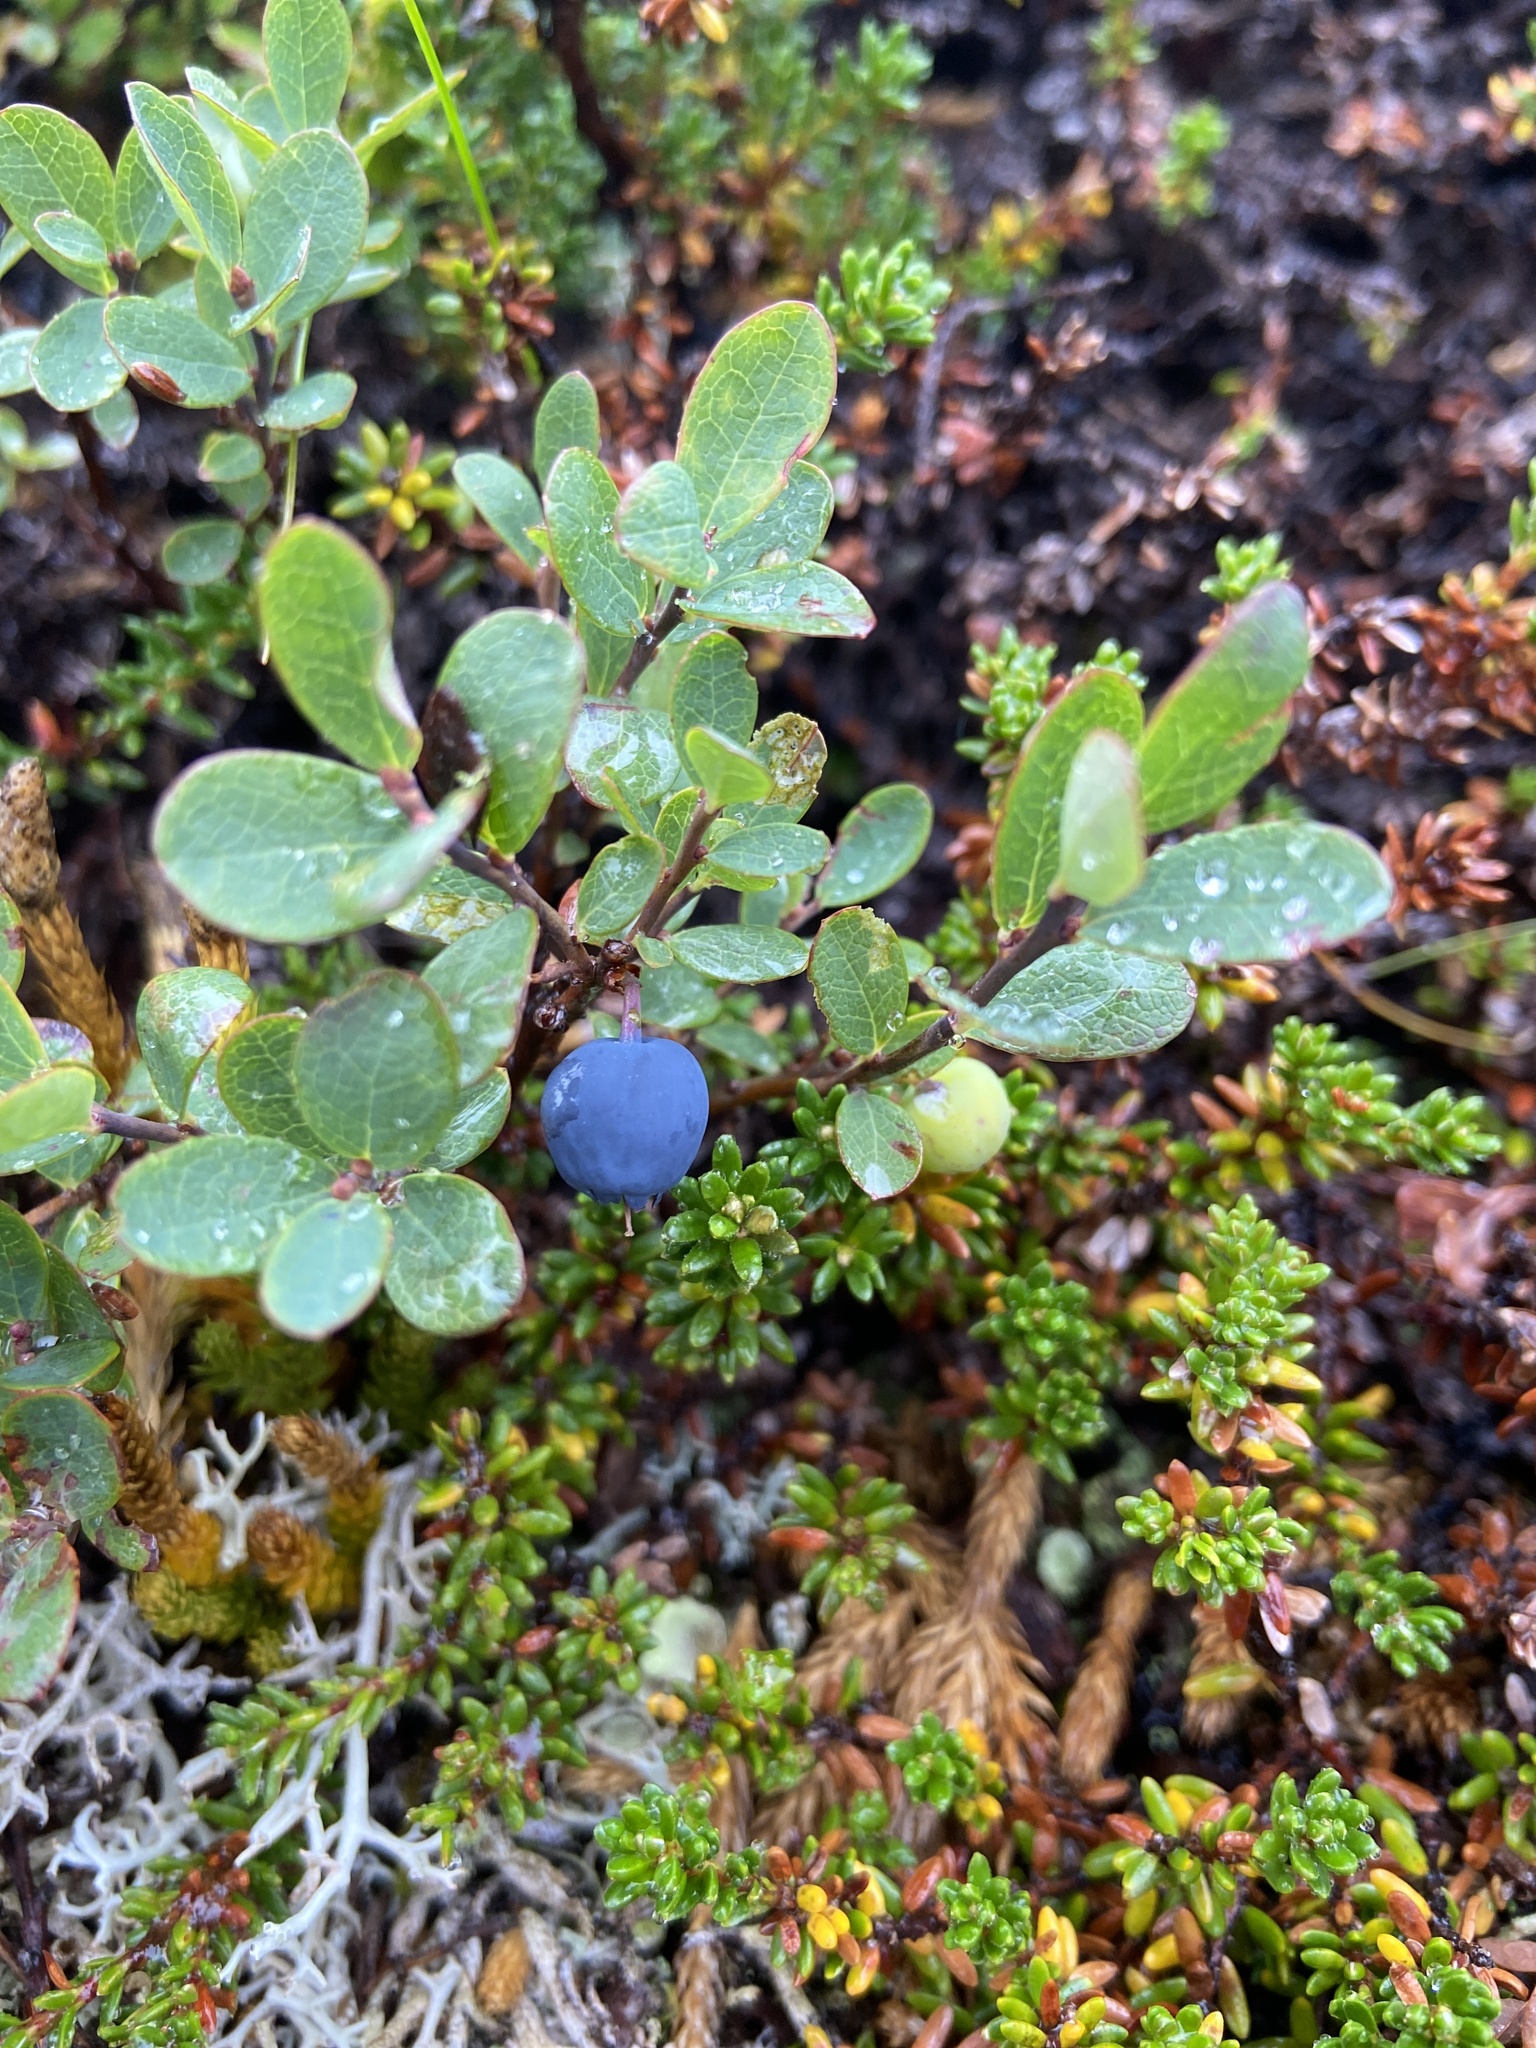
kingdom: Plantae
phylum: Tracheophyta
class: Magnoliopsida
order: Ericales
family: Ericaceae
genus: Vaccinium
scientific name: Vaccinium uliginosum
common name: Bog bilberry
